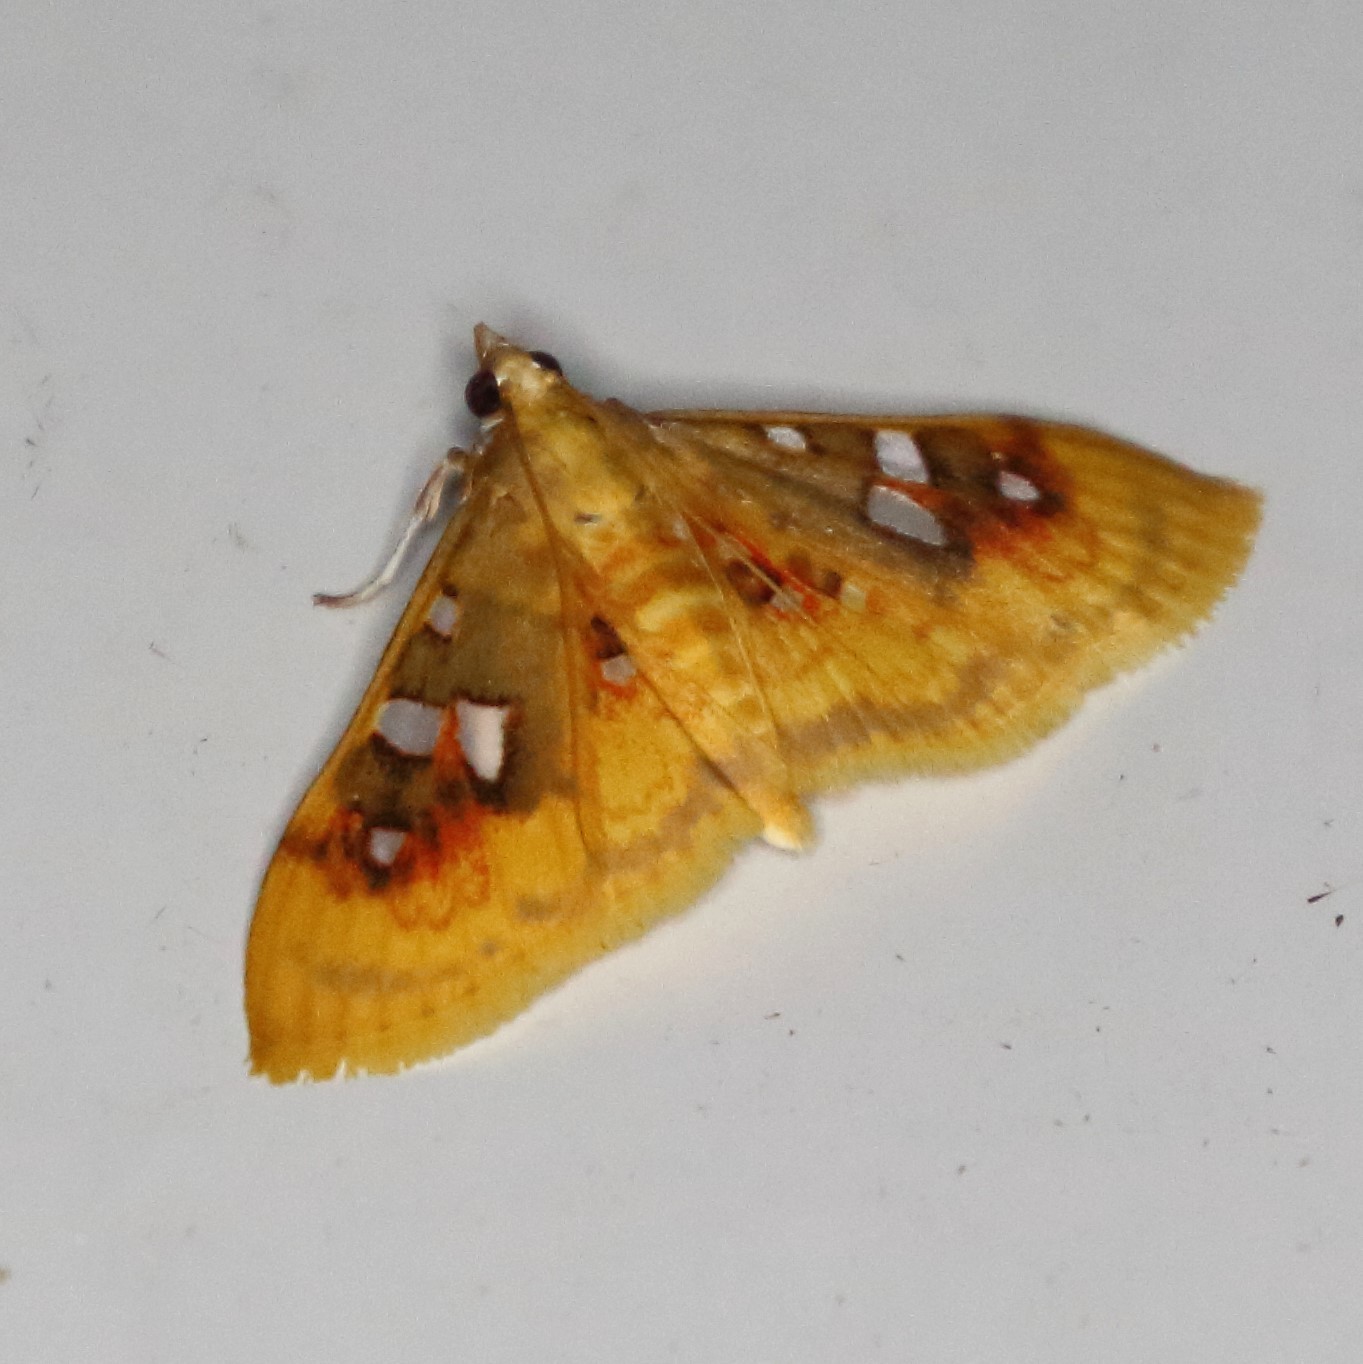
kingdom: Animalia
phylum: Arthropoda
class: Insecta
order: Lepidoptera
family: Crambidae
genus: Sameodes
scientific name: Sameodes
